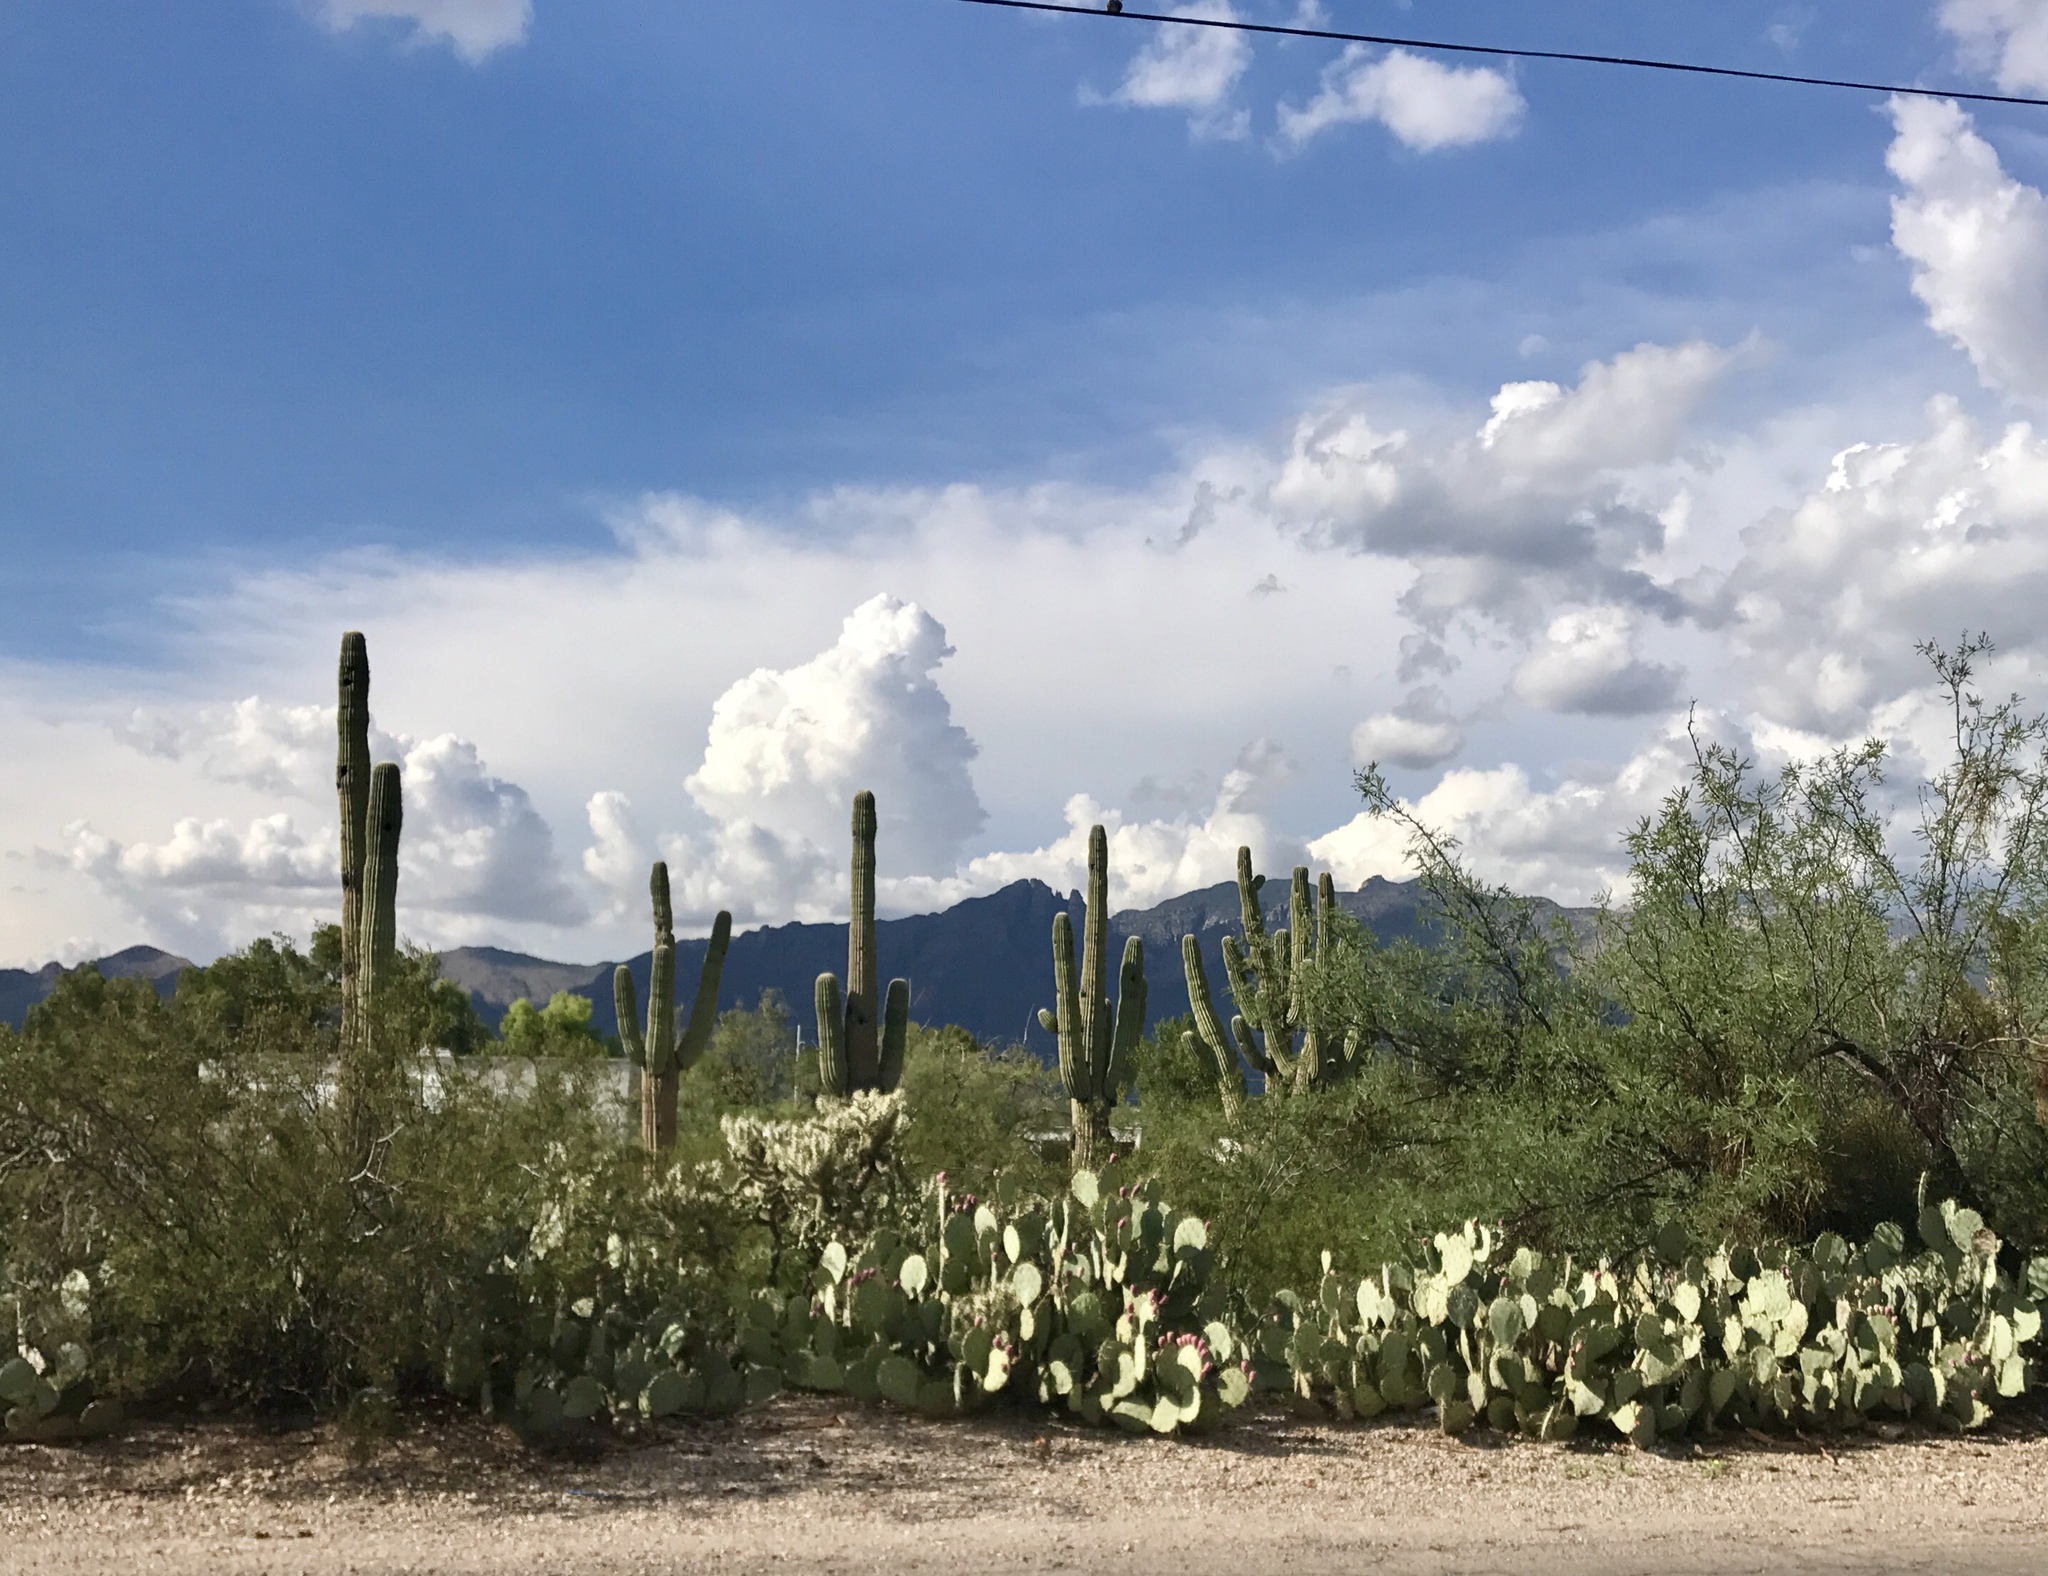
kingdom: Plantae
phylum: Tracheophyta
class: Magnoliopsida
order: Caryophyllales
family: Cactaceae
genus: Carnegiea
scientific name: Carnegiea gigantea
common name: Saguaro
